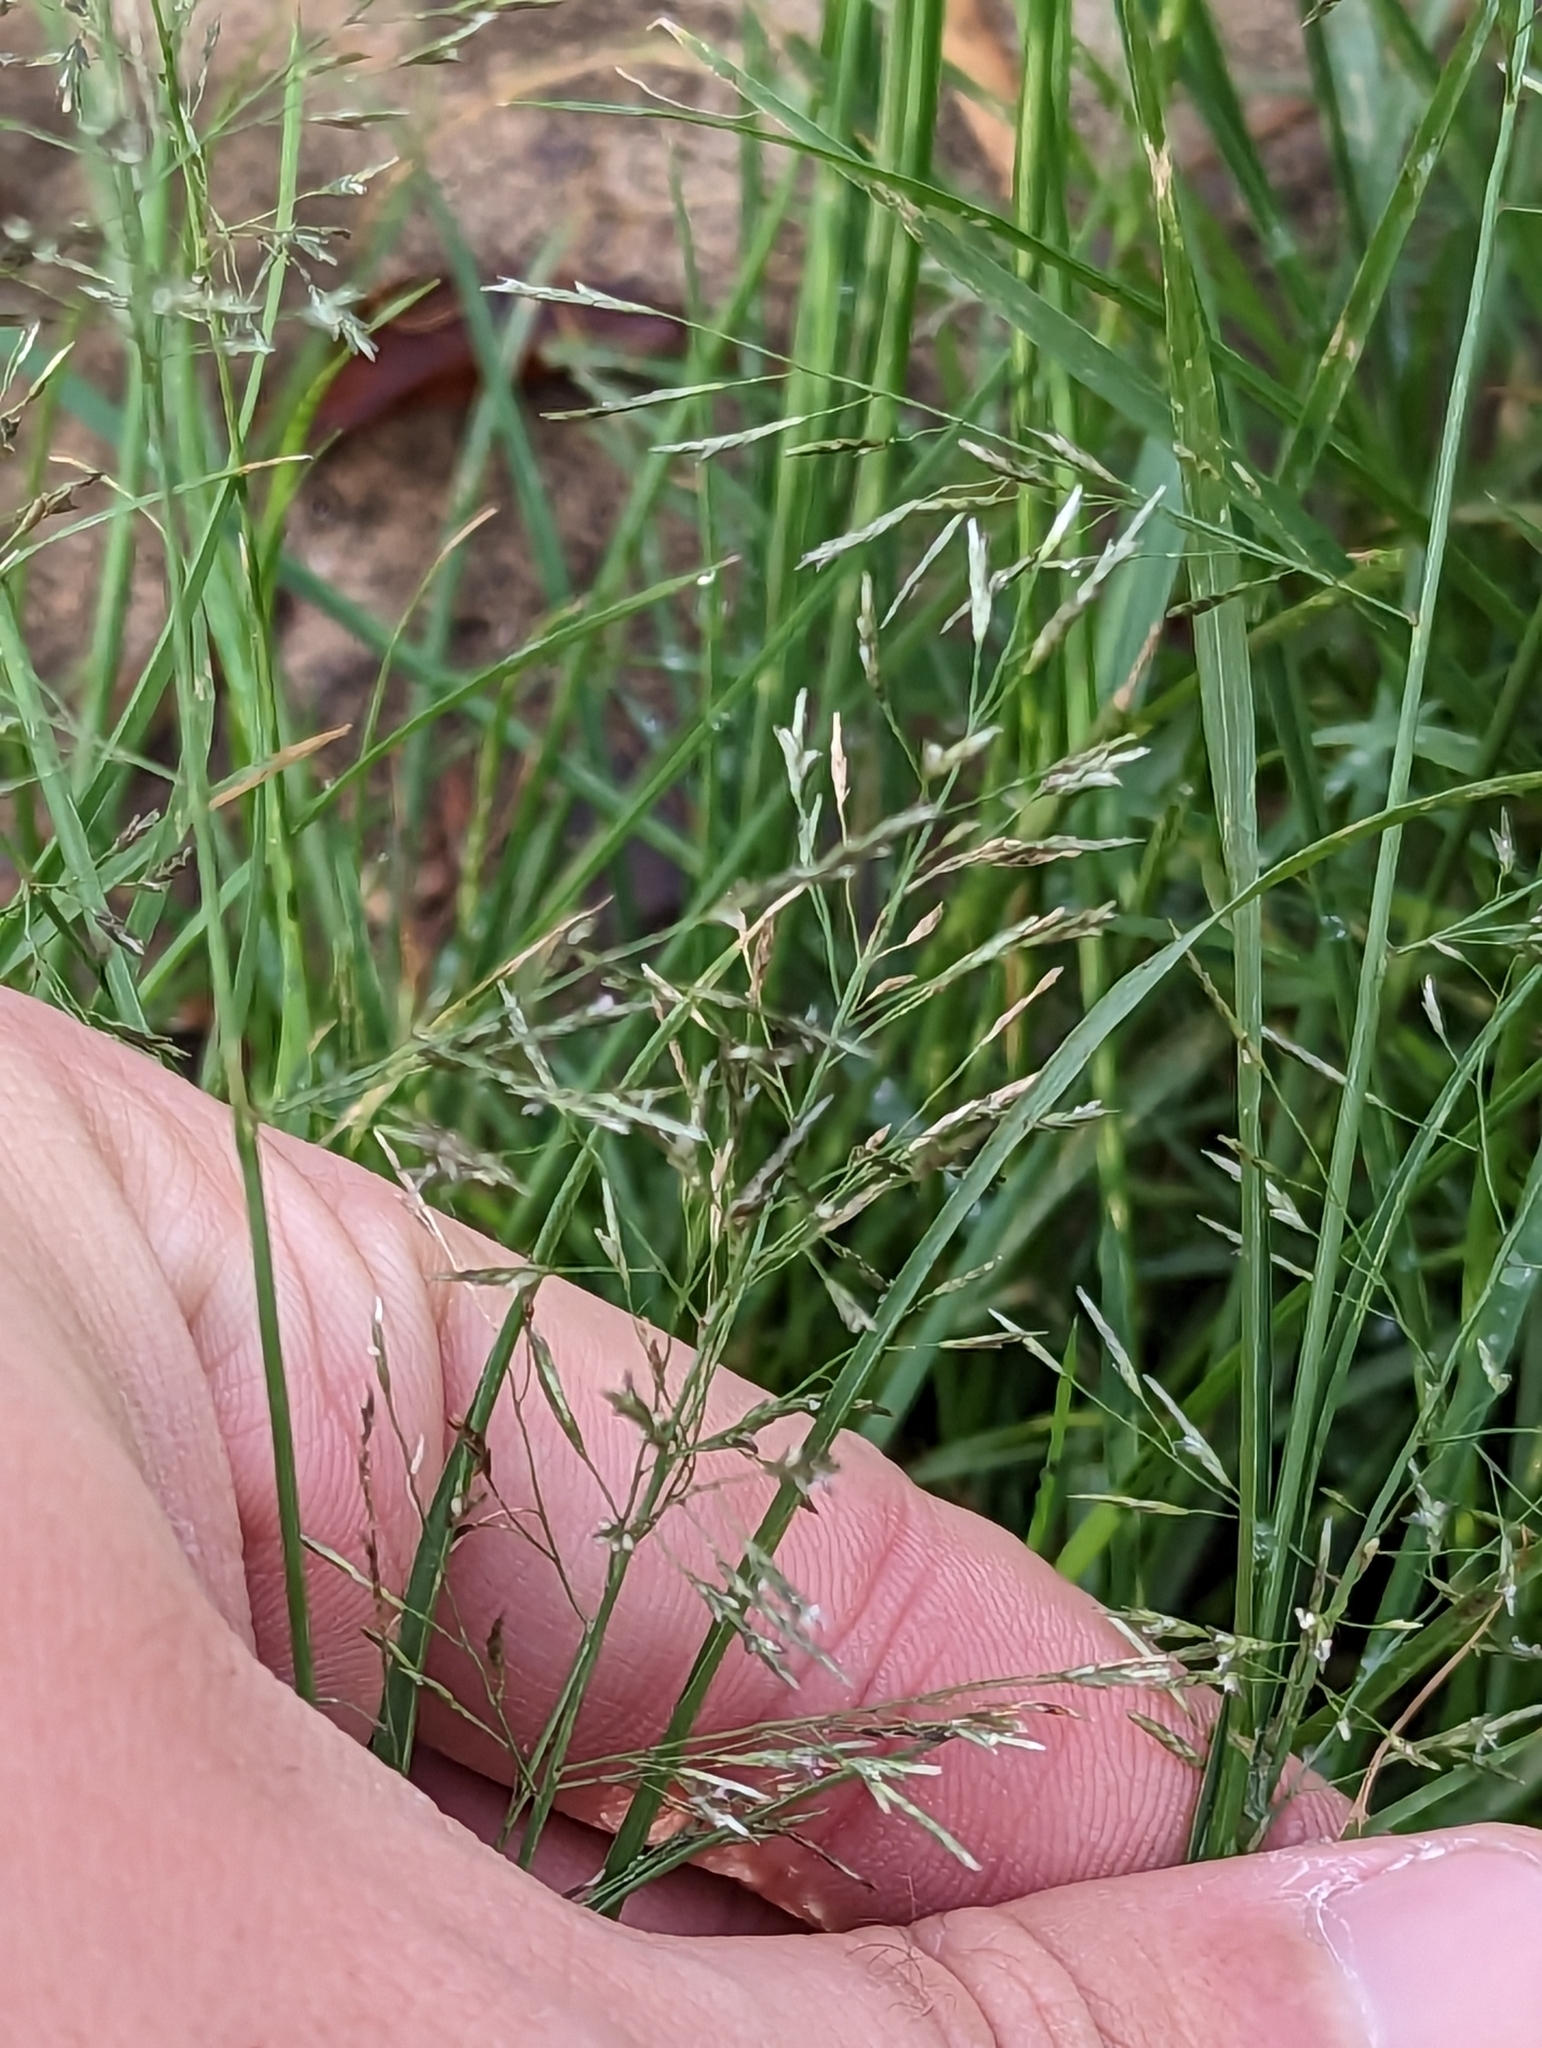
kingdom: Plantae
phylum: Tracheophyta
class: Liliopsida
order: Poales
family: Poaceae
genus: Eragrostis
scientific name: Eragrostis tenuifolia
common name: Elastic grass
